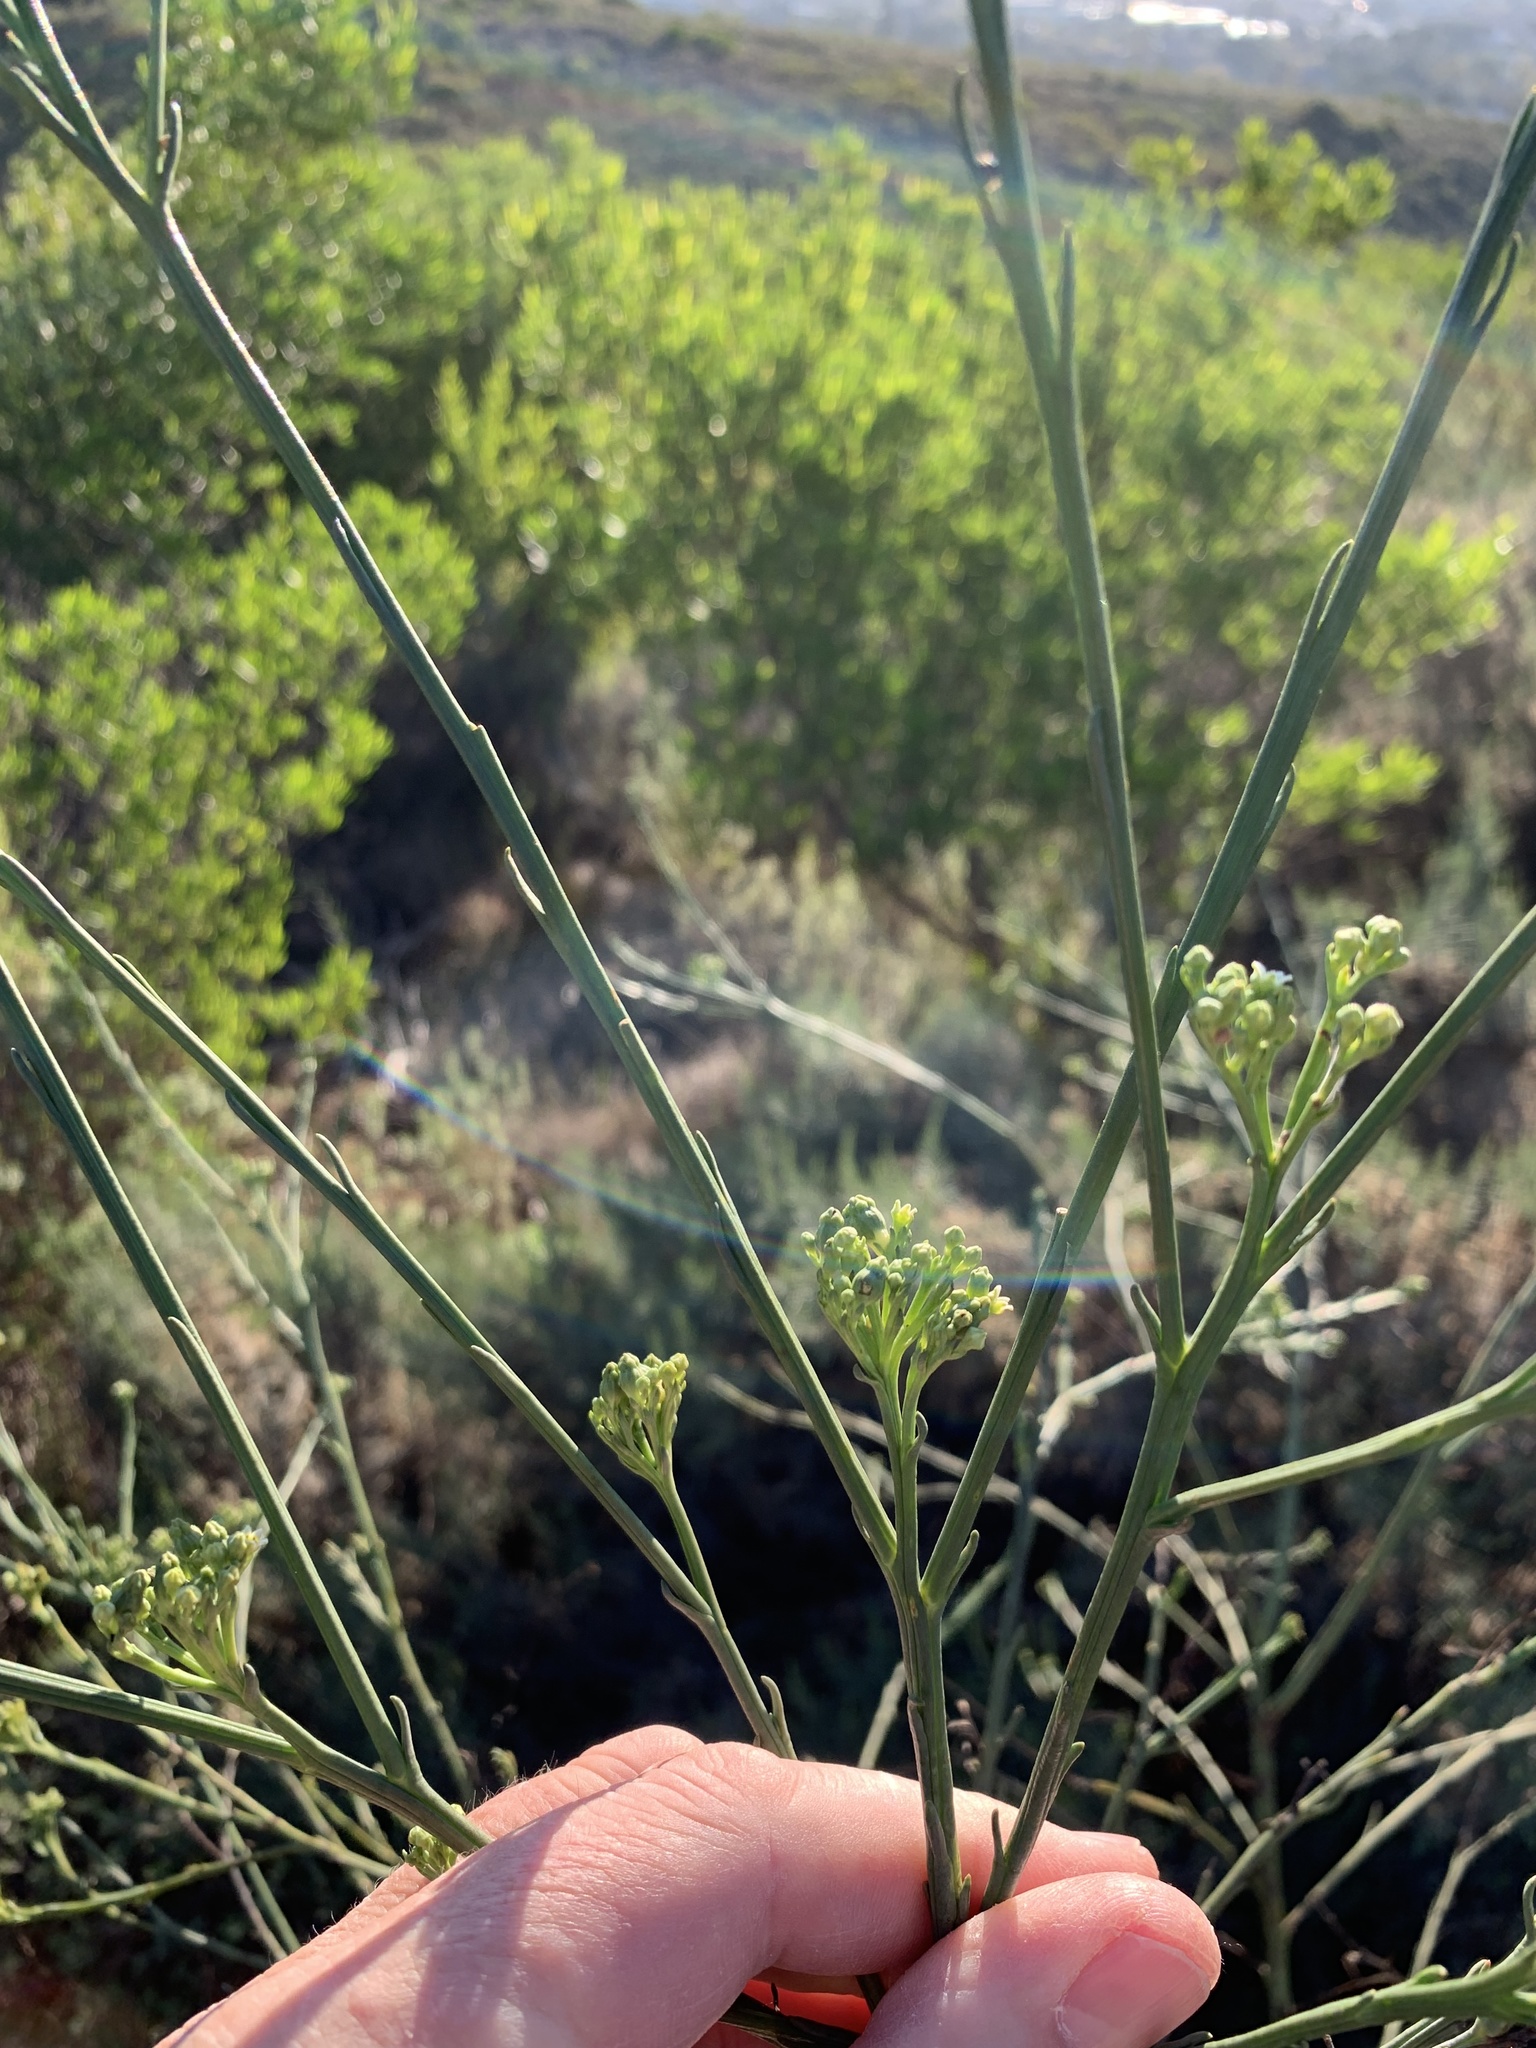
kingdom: Plantae
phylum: Tracheophyta
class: Magnoliopsida
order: Santalales
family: Thesiaceae
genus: Thesium
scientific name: Thesium strictum
